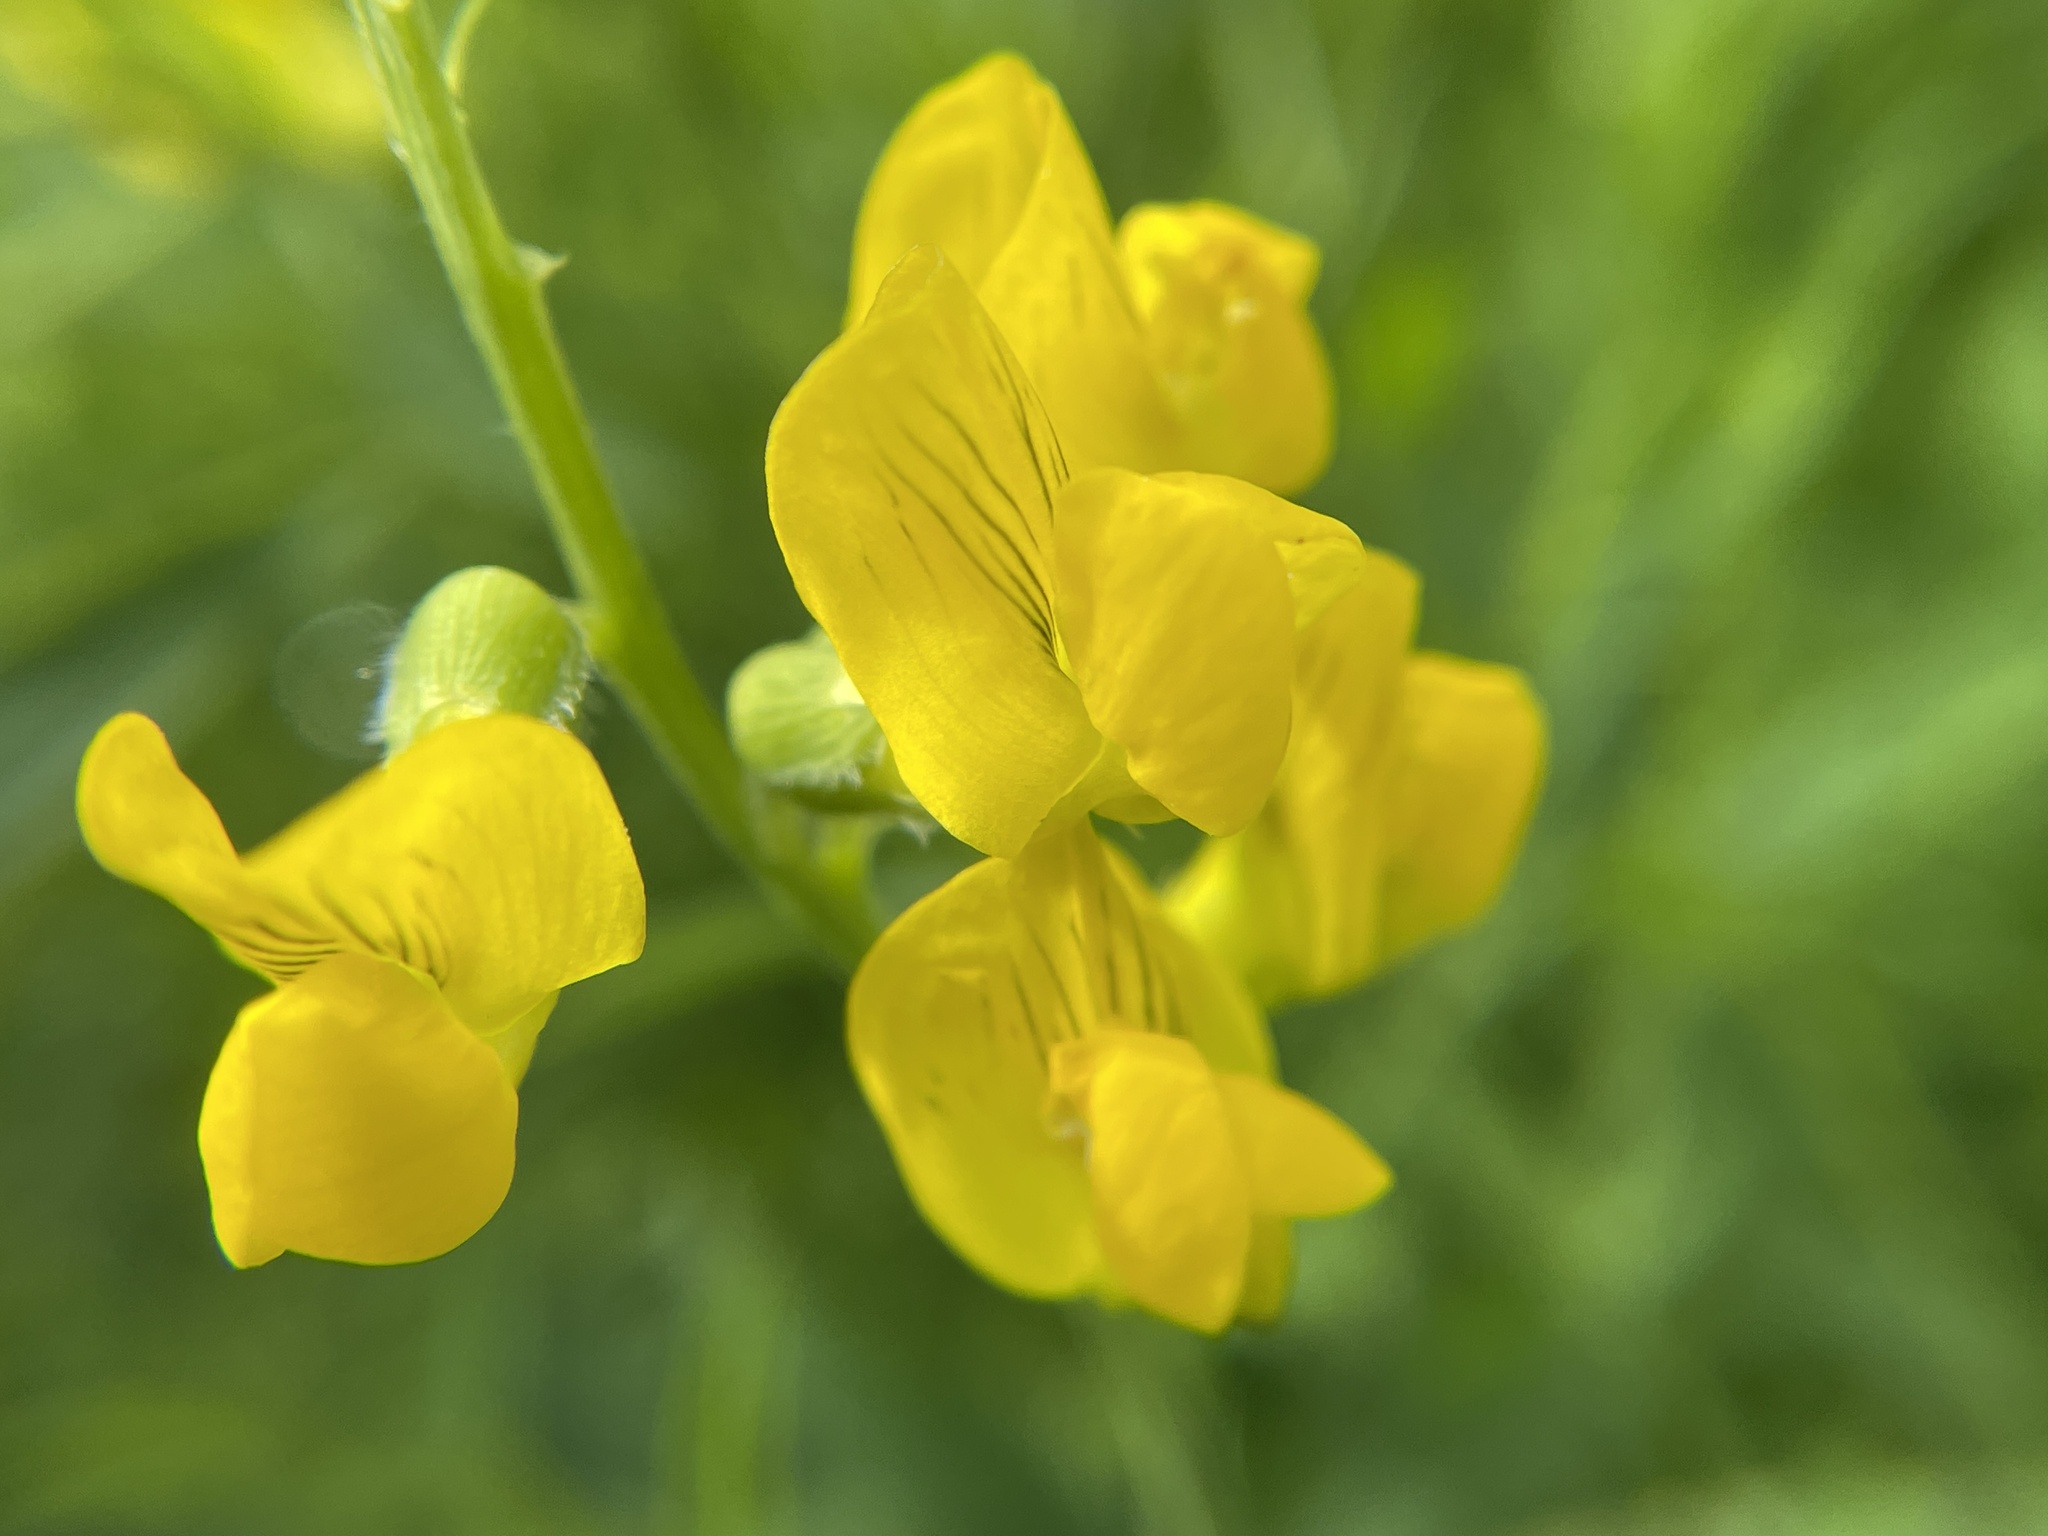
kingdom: Plantae
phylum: Tracheophyta
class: Magnoliopsida
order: Fabales
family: Fabaceae
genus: Lathyrus
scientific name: Lathyrus pratensis
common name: Meadow vetchling
